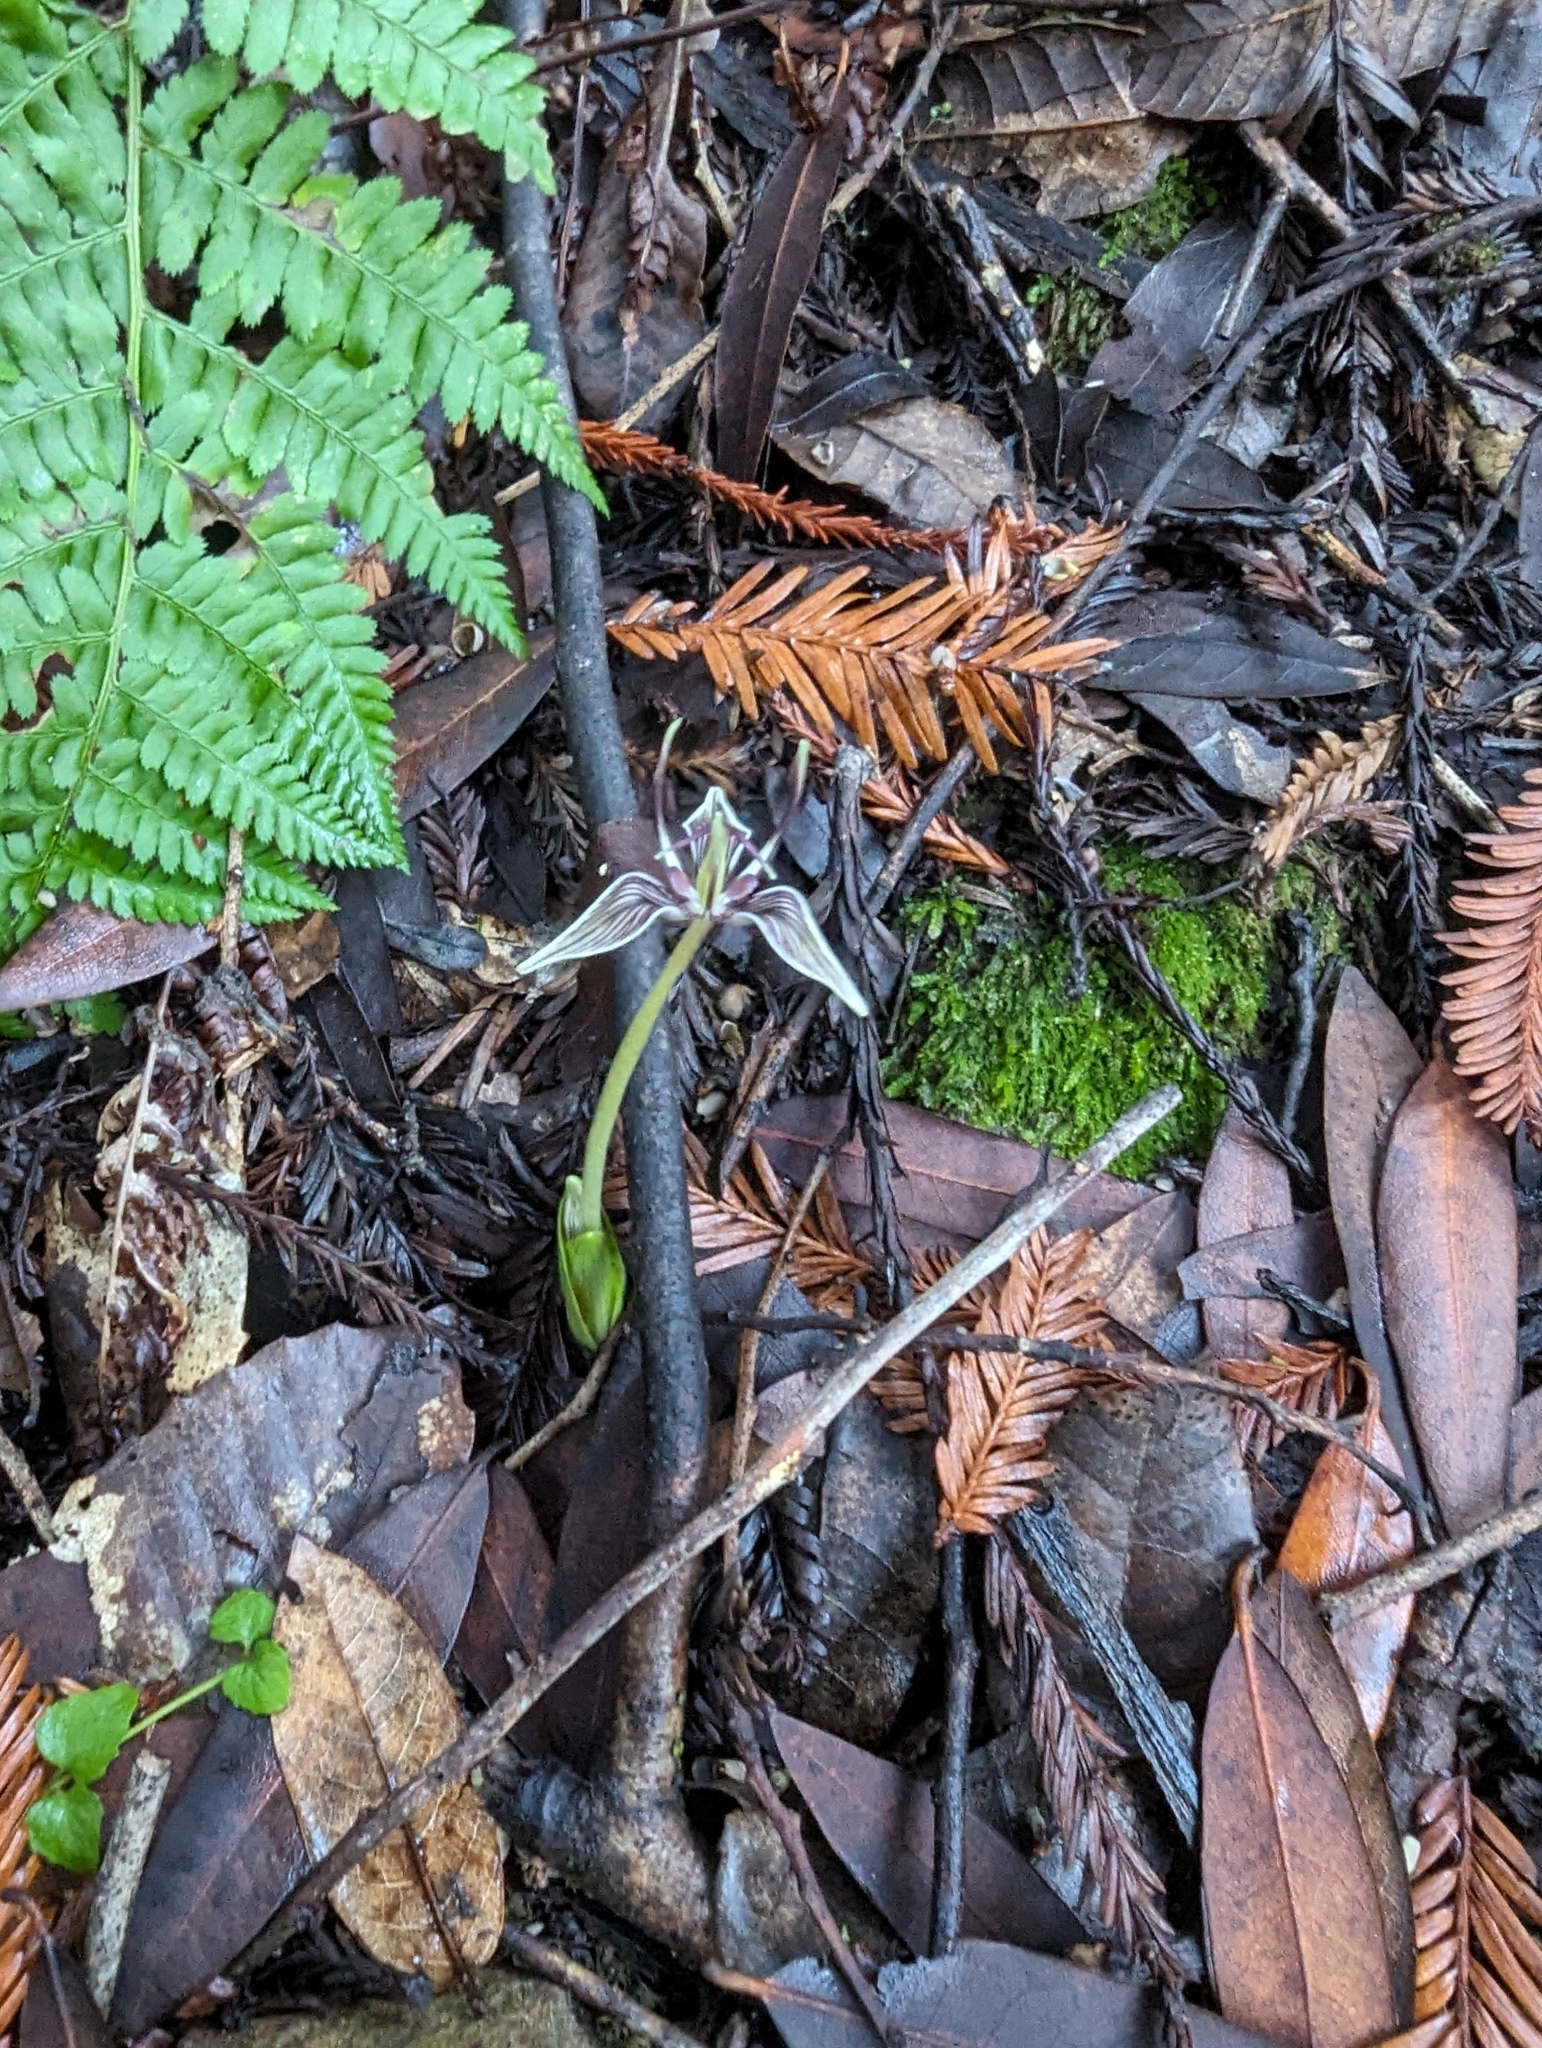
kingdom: Plantae
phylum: Tracheophyta
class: Liliopsida
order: Liliales
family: Liliaceae
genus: Scoliopus
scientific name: Scoliopus bigelovii
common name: Foetid adder's-tongue
